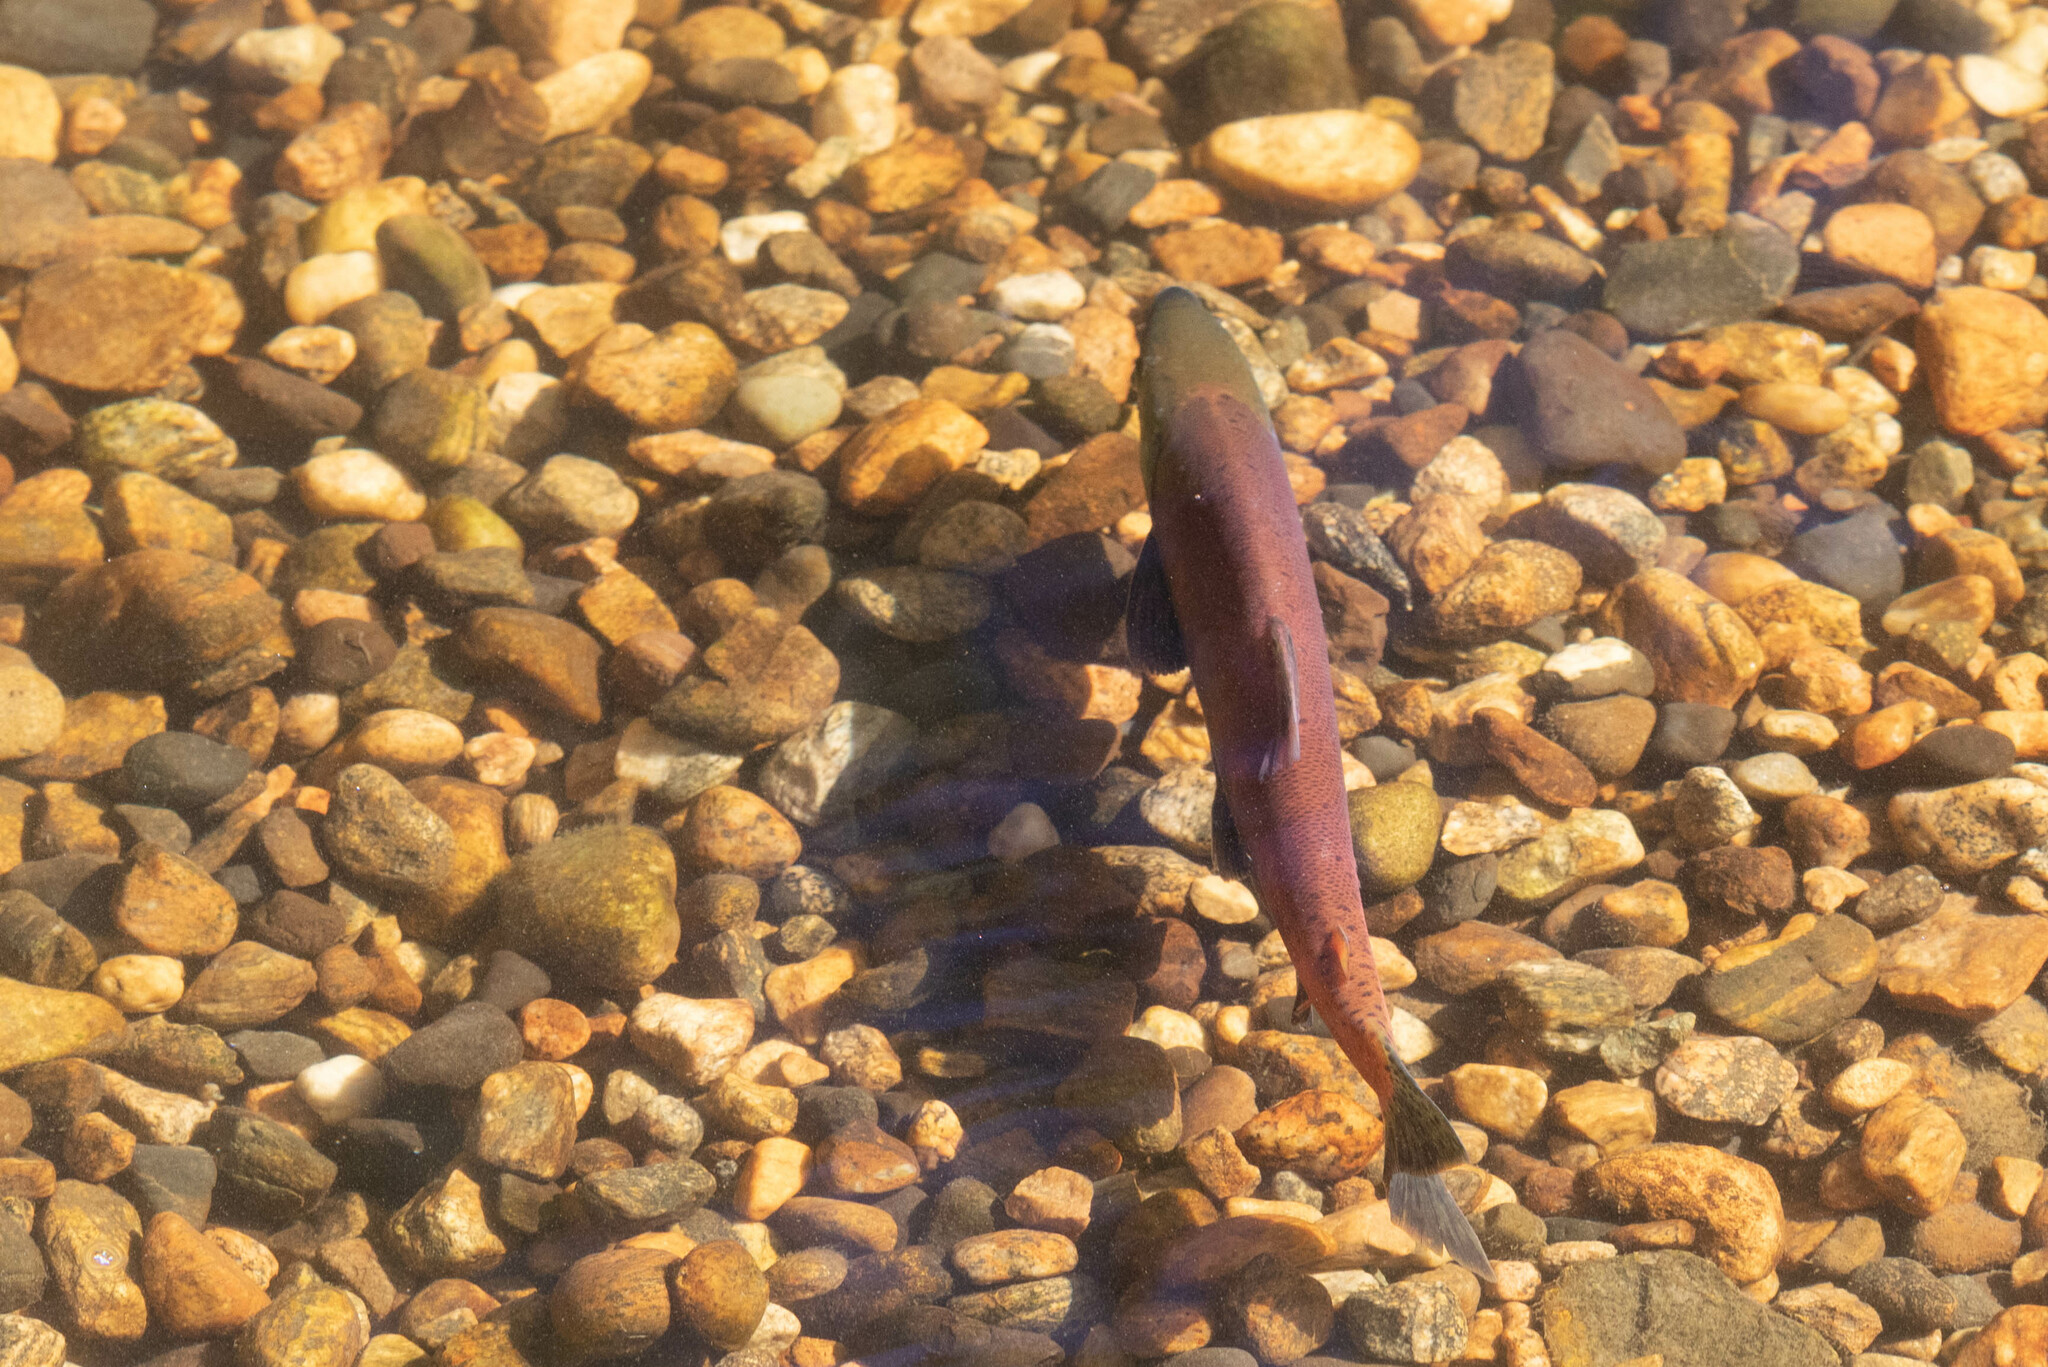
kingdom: Animalia
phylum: Chordata
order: Salmoniformes
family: Salmonidae
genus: Oncorhynchus
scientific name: Oncorhynchus nerka
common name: Sockeye salmon
